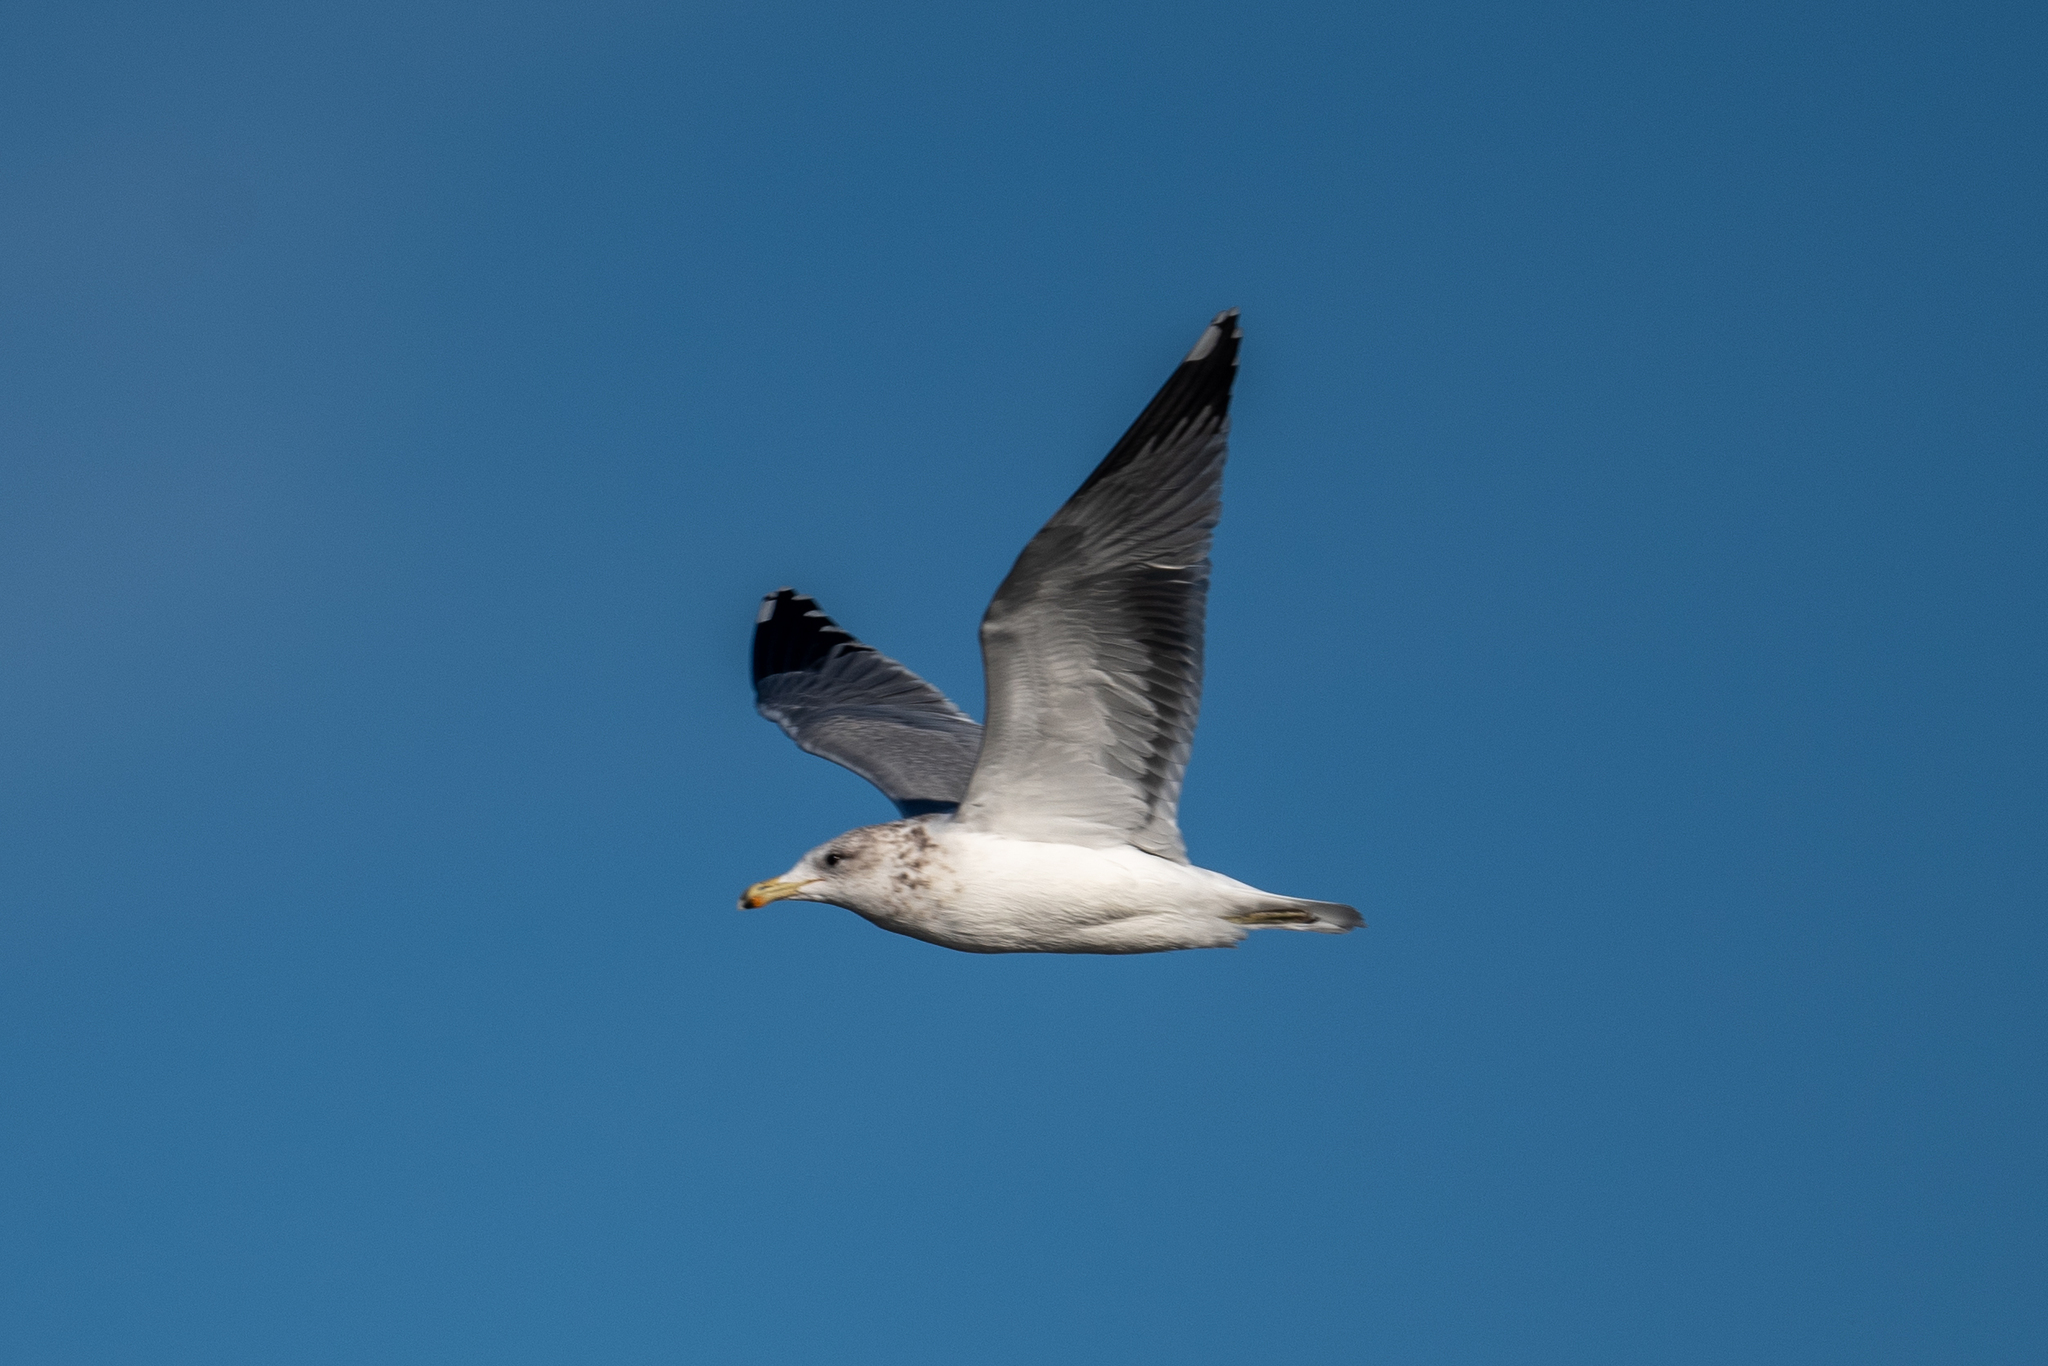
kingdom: Animalia
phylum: Chordata
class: Aves
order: Charadriiformes
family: Laridae
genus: Larus
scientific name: Larus californicus
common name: California gull
